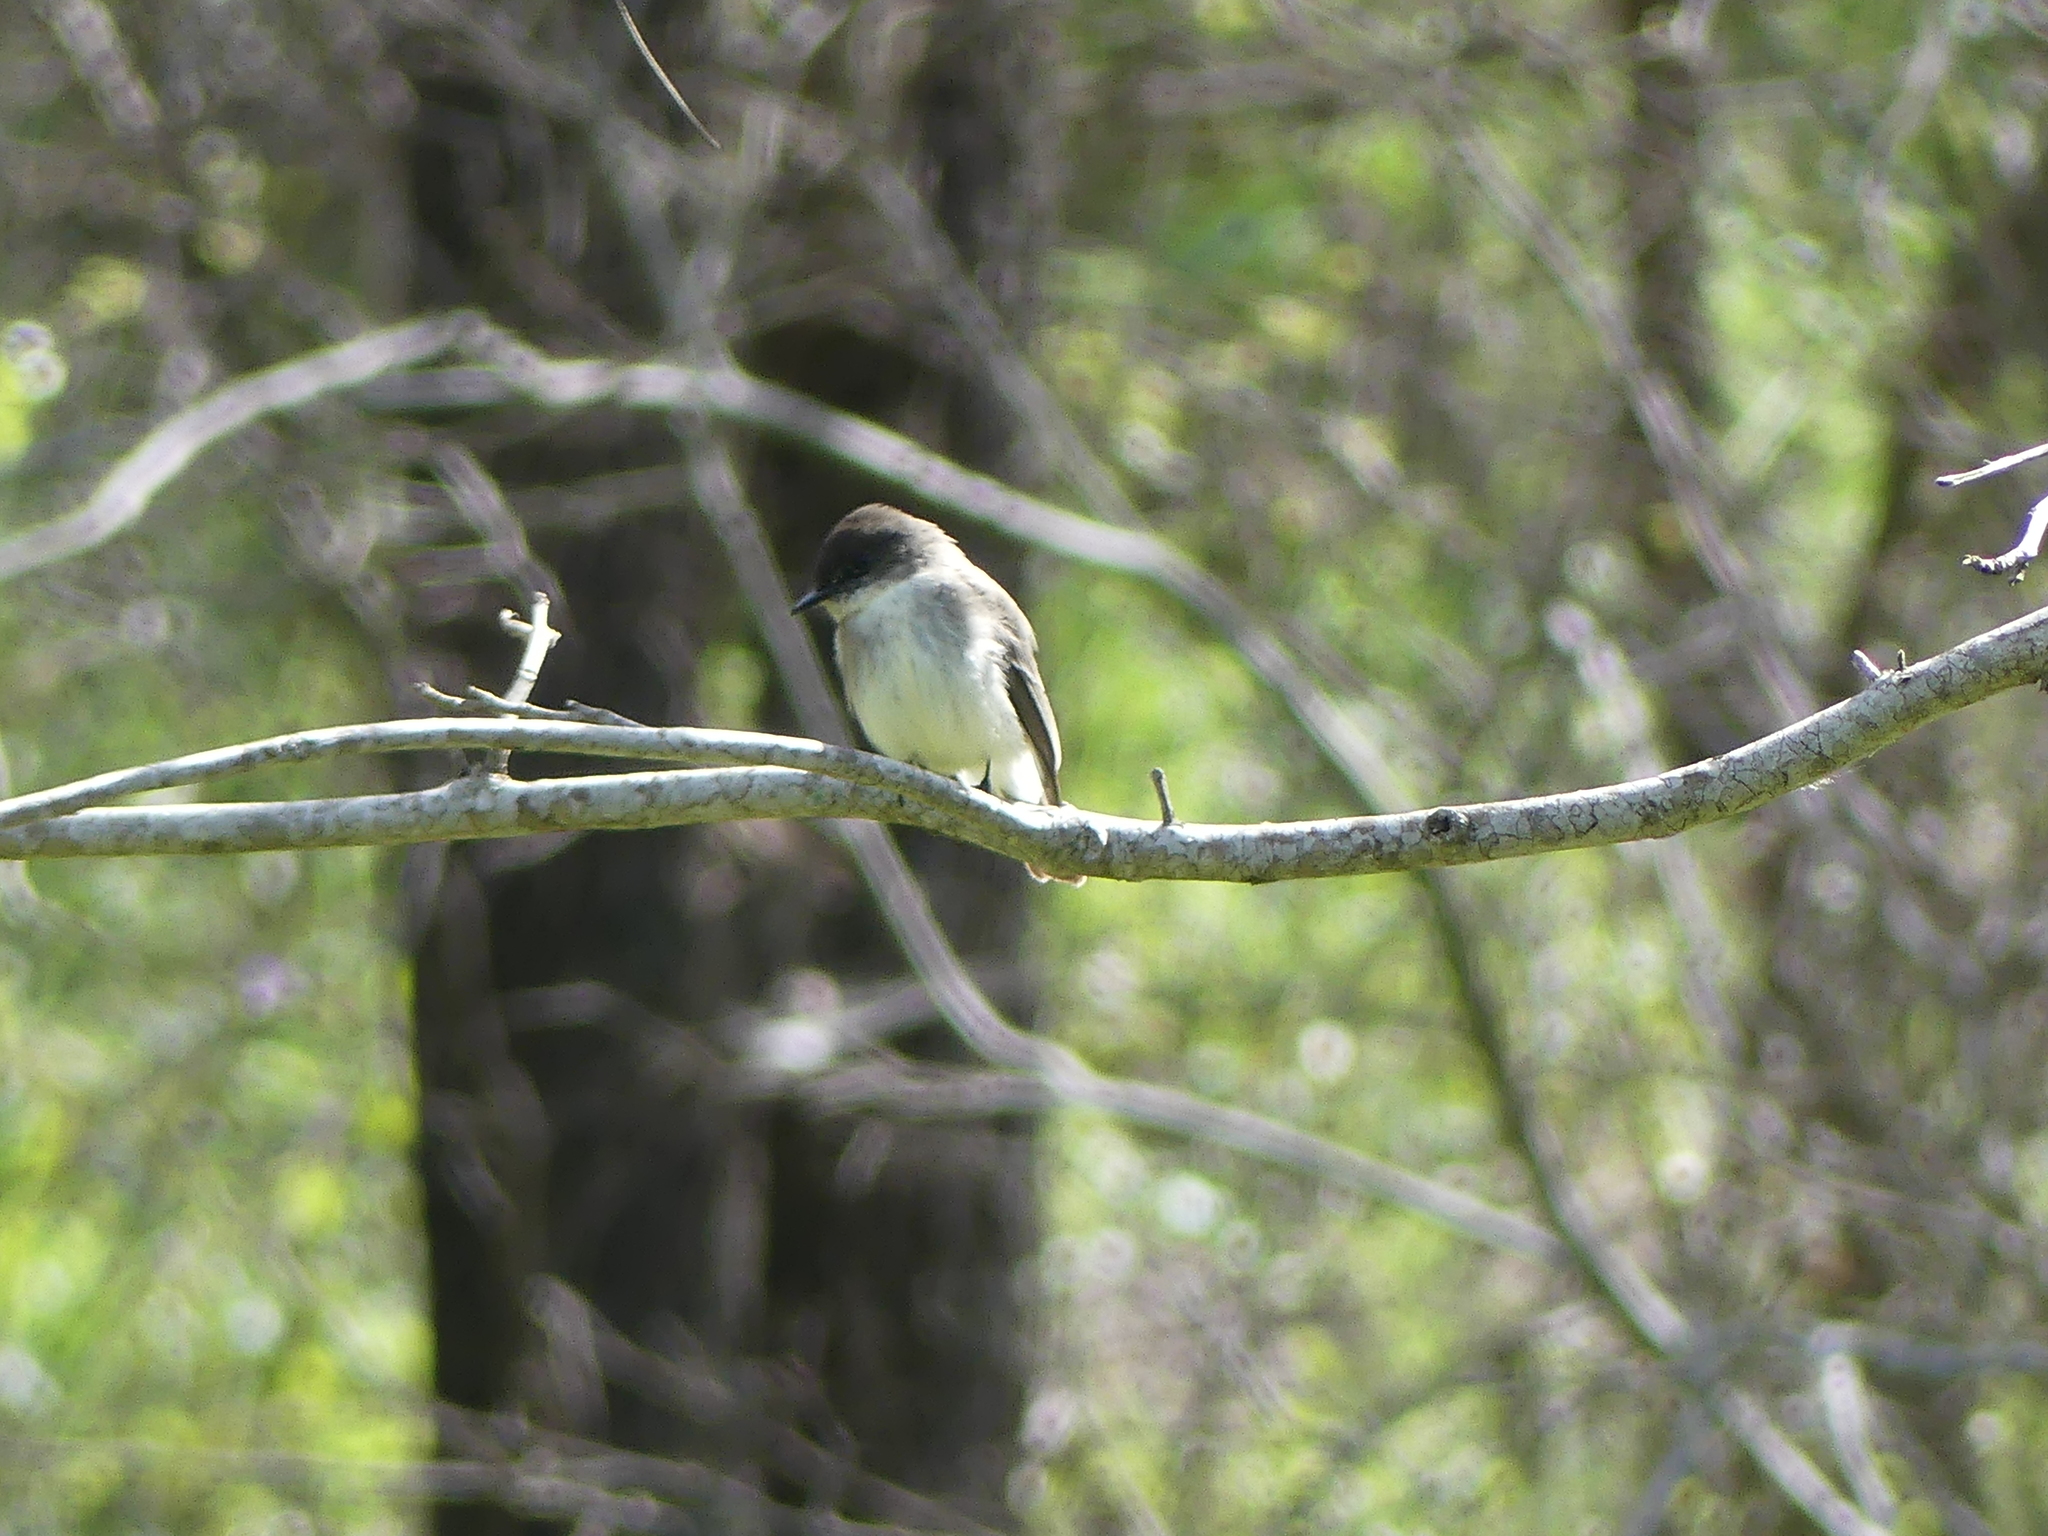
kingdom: Animalia
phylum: Chordata
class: Aves
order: Passeriformes
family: Tyrannidae
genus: Sayornis
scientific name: Sayornis phoebe
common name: Eastern phoebe
